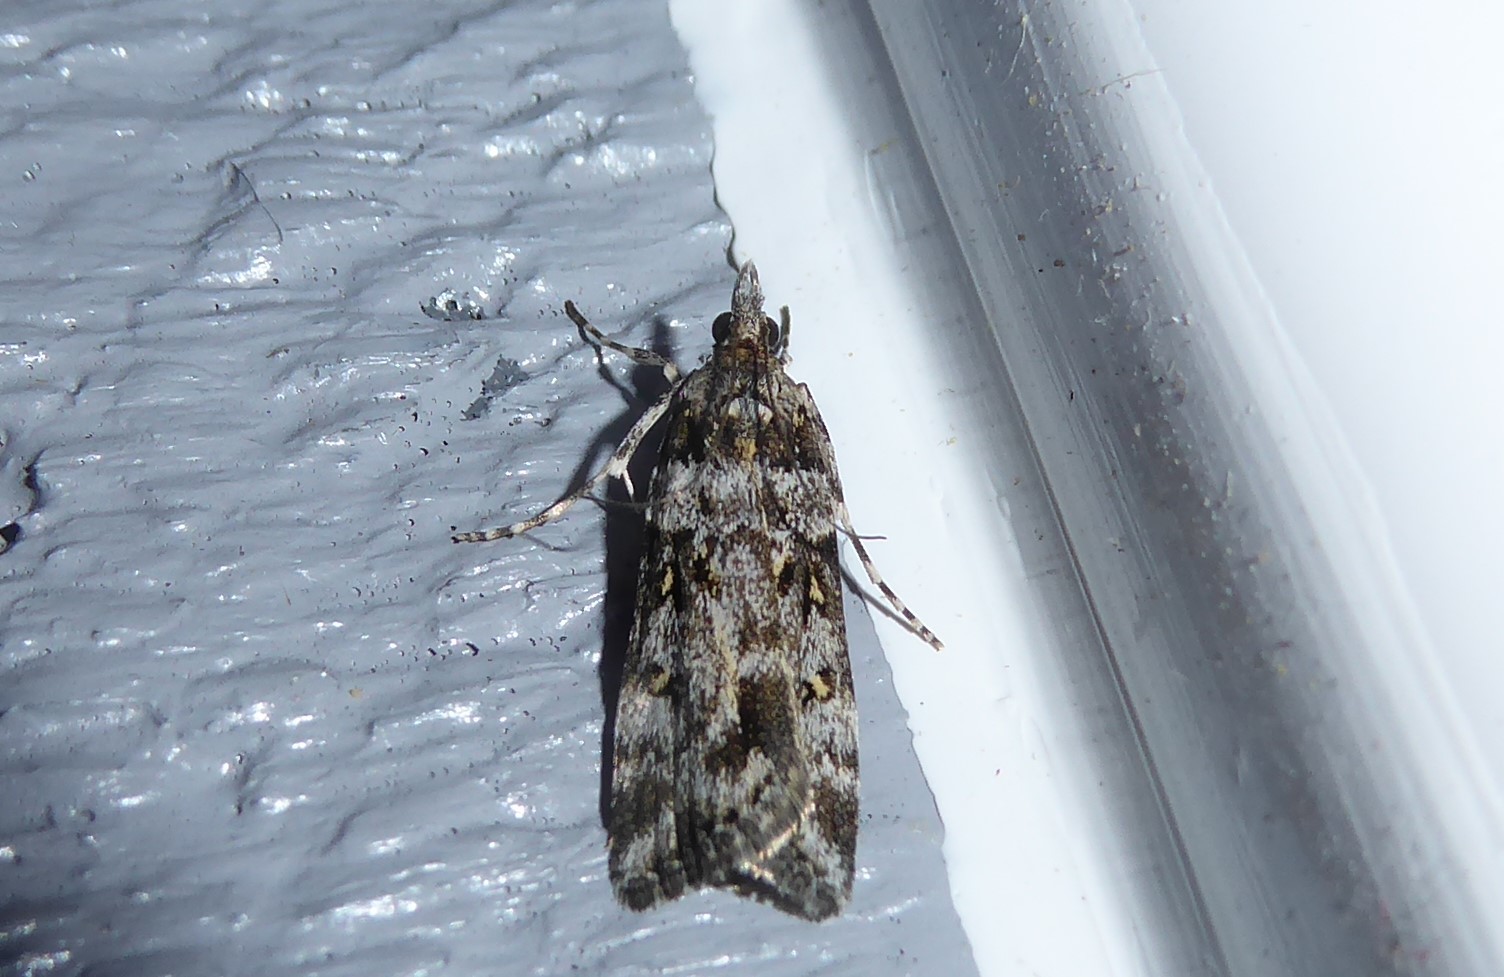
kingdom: Animalia
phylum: Arthropoda
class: Insecta
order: Lepidoptera
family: Crambidae
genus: Eudonia
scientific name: Eudonia diphtheralis
